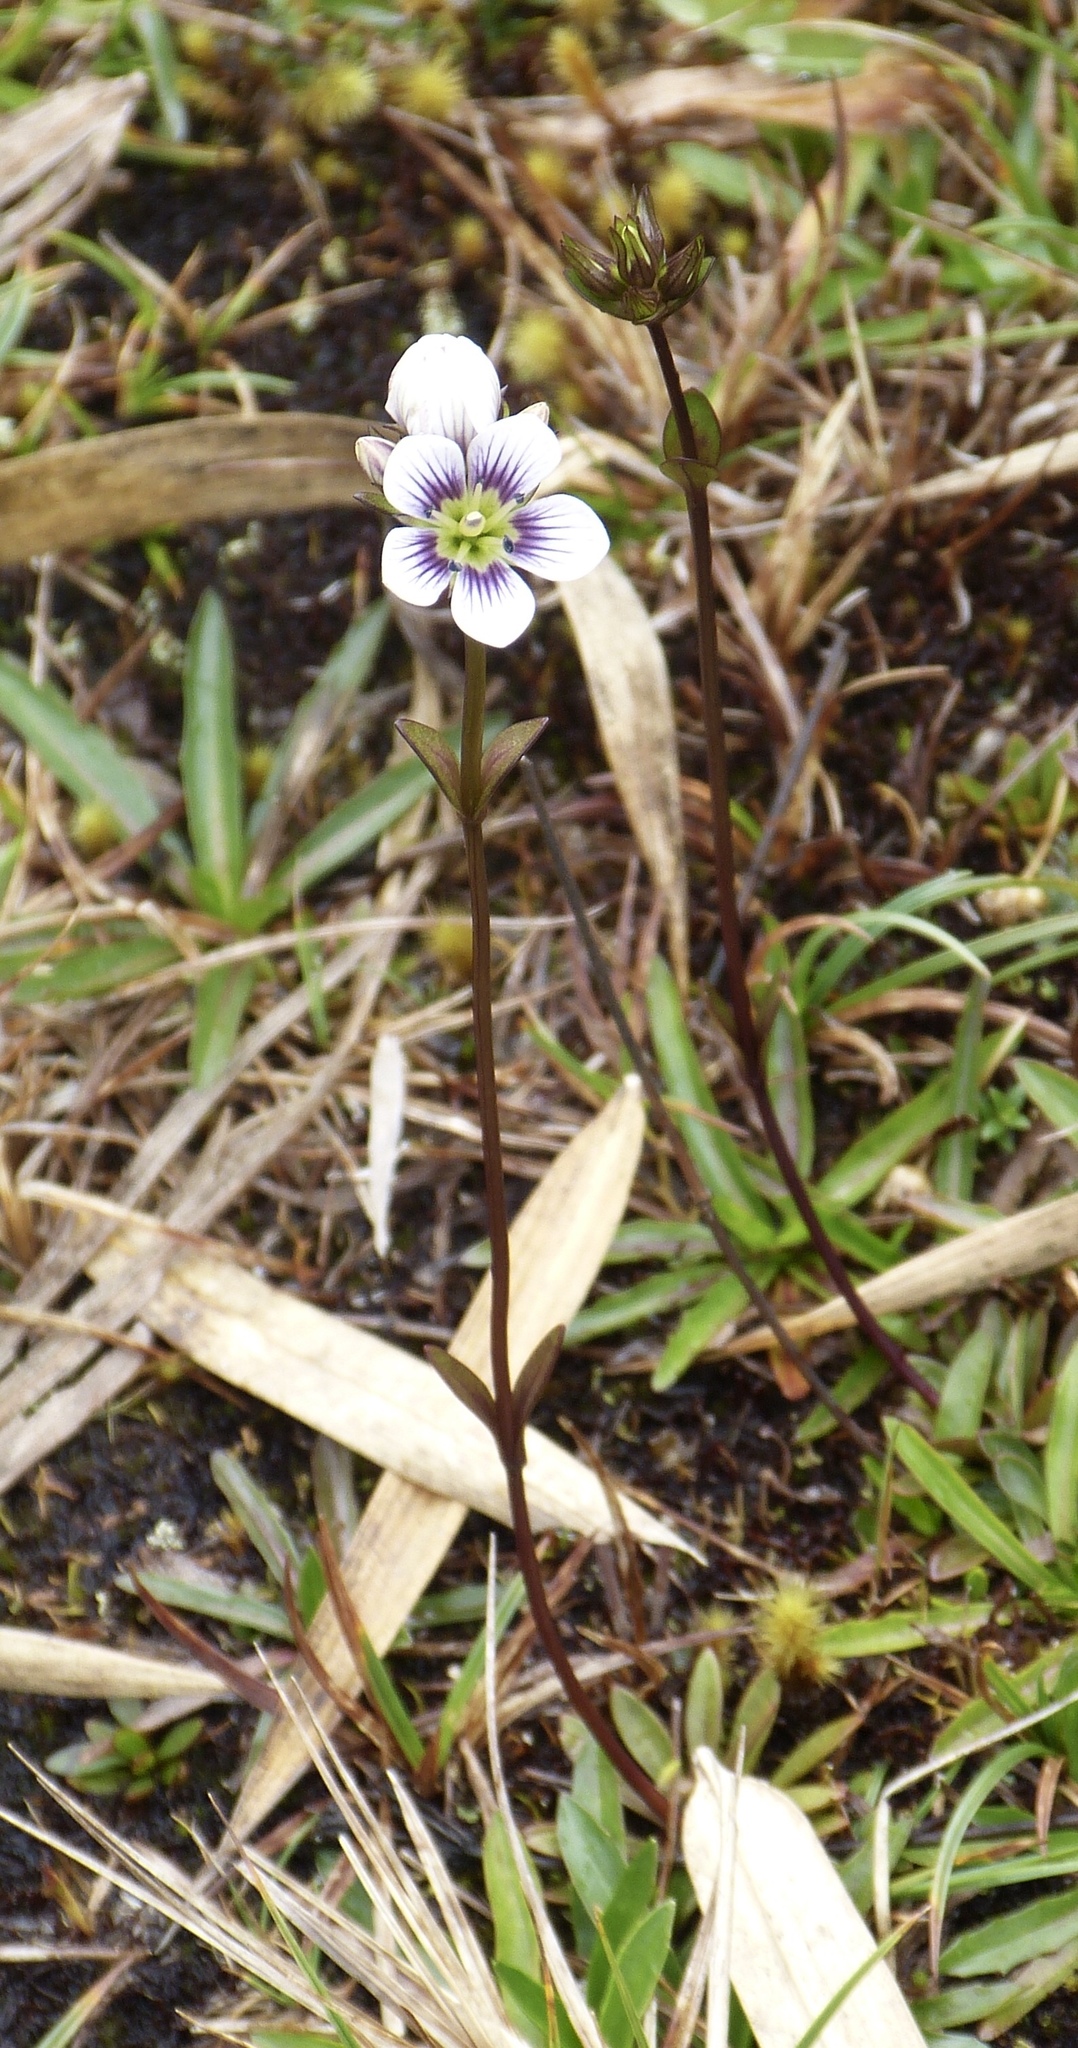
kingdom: Plantae
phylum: Tracheophyta
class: Magnoliopsida
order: Gentianales
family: Gentianaceae
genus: Gentianella
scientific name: Gentianella corymbosa
